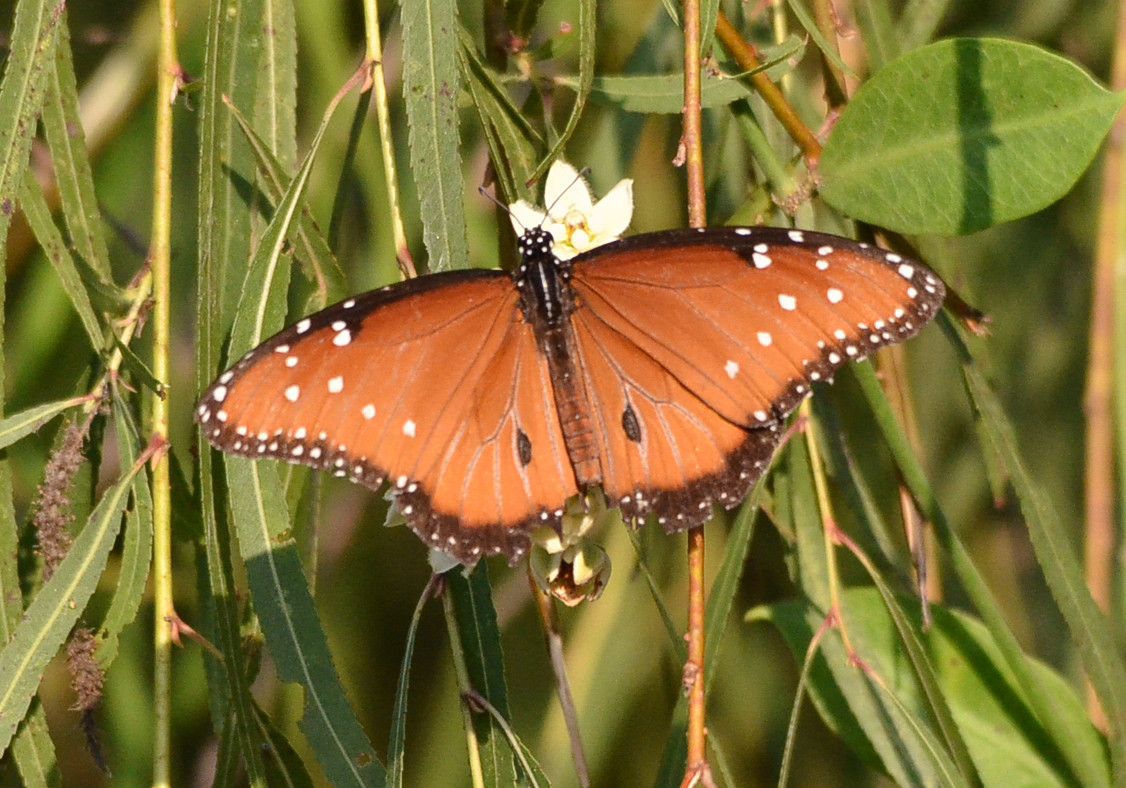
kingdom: Animalia
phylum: Arthropoda
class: Insecta
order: Lepidoptera
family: Nymphalidae
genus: Danaus
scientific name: Danaus gilippus
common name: Queen
